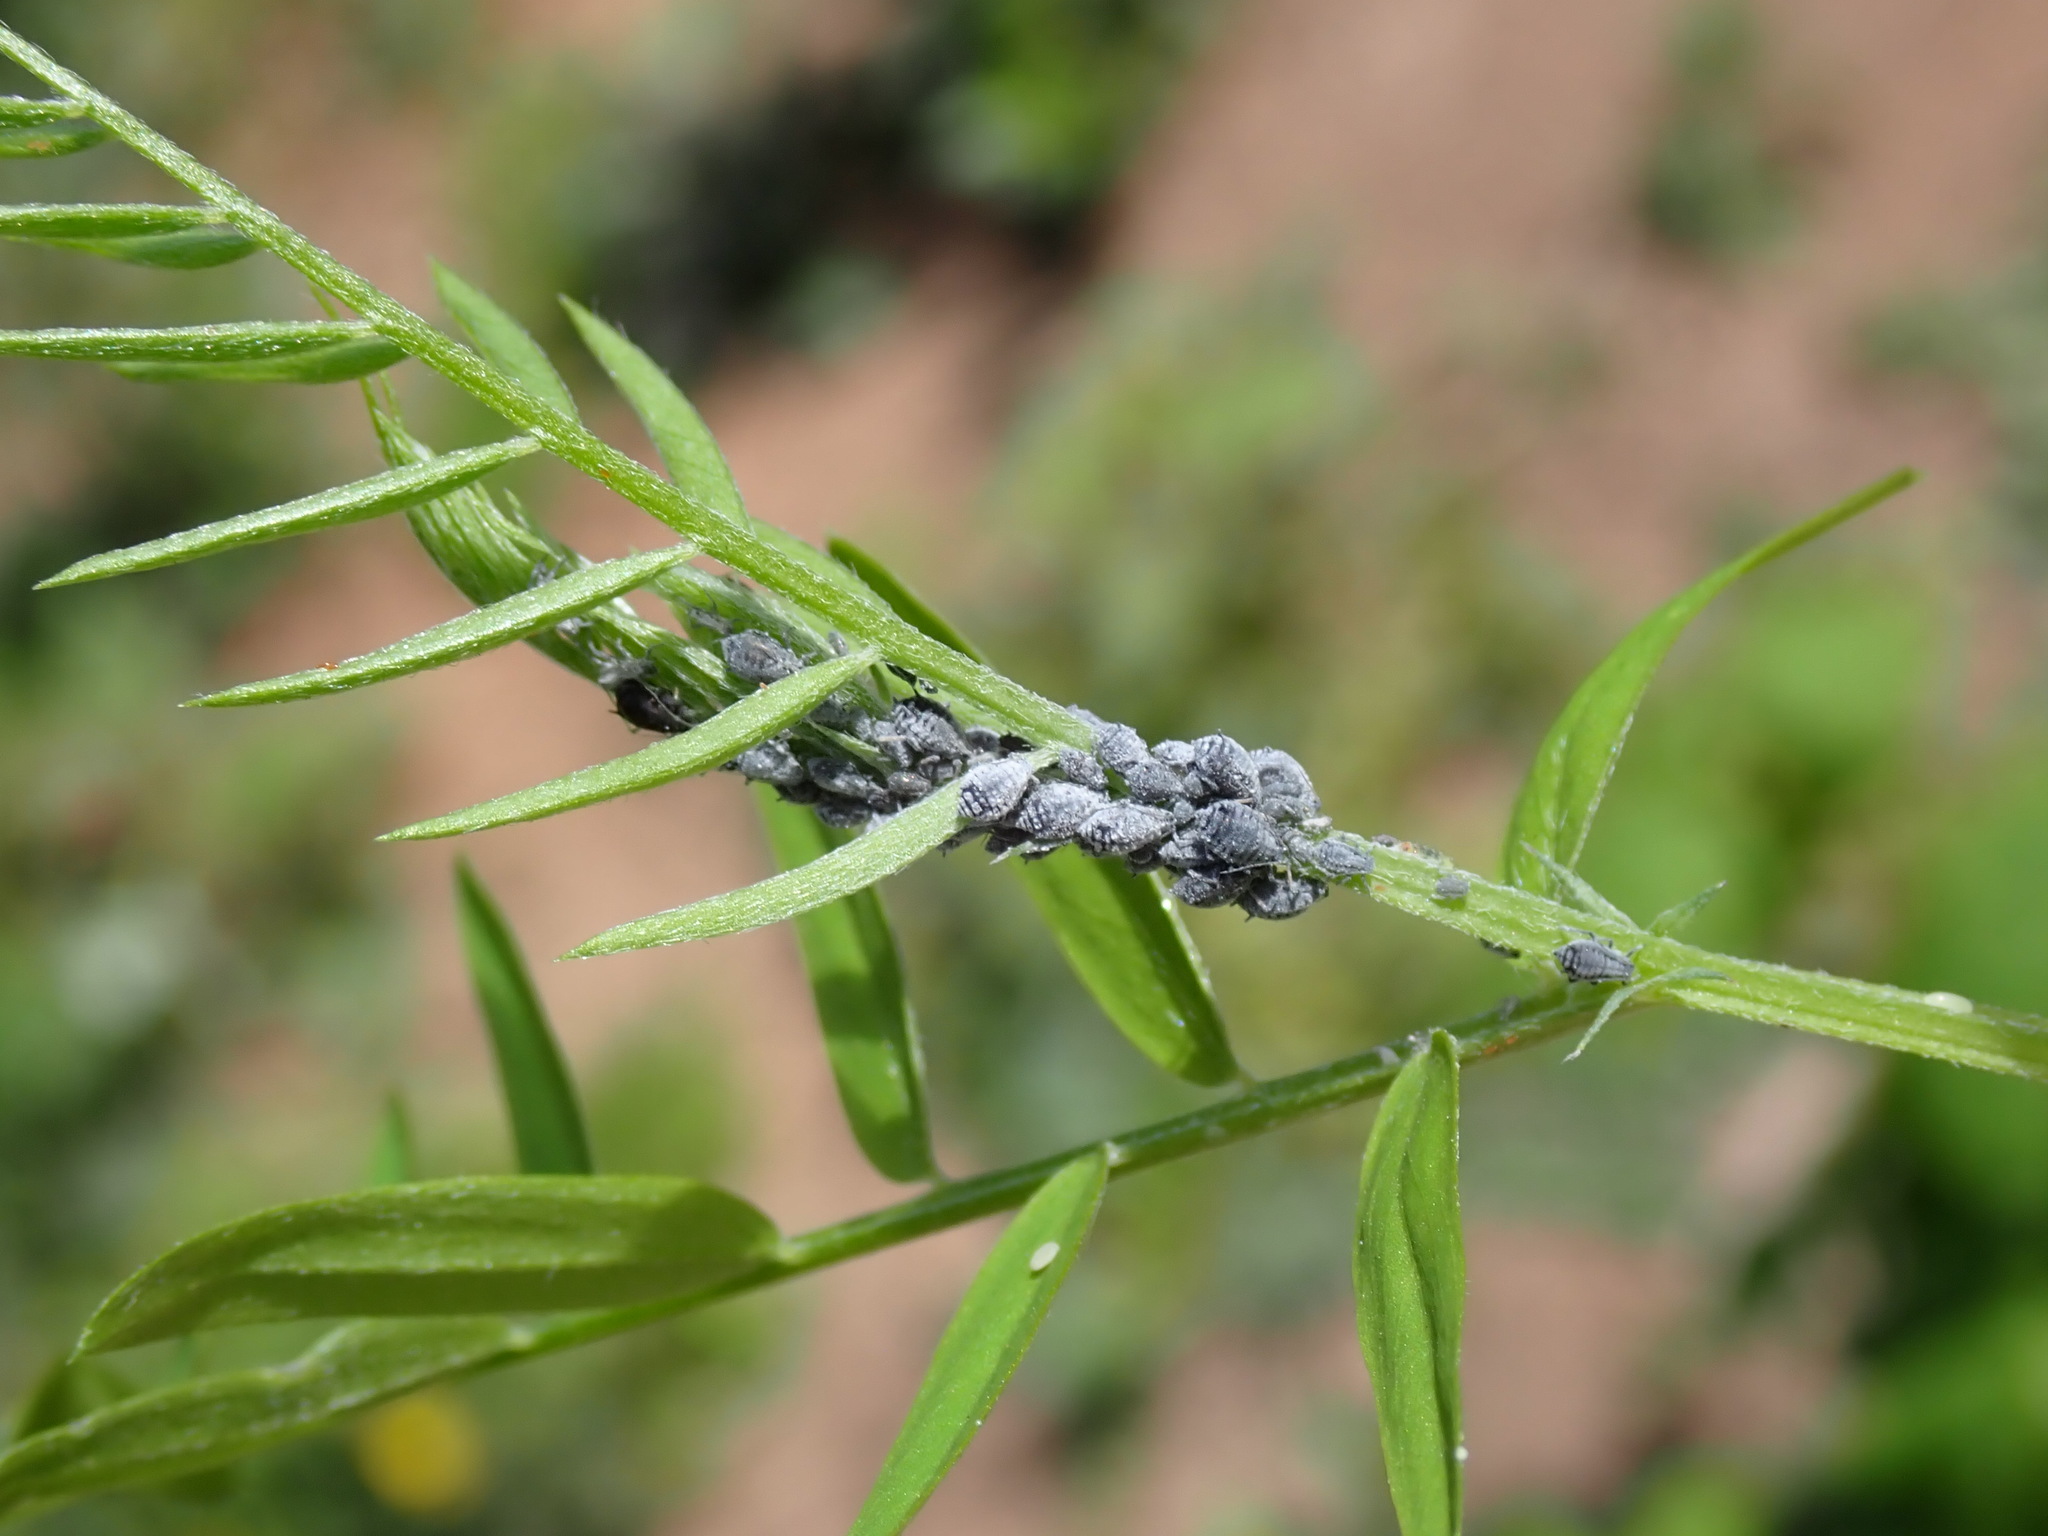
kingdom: Animalia
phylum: Arthropoda
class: Insecta
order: Hemiptera
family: Aphididae
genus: Aphis
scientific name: Aphis craccae
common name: Aphid
